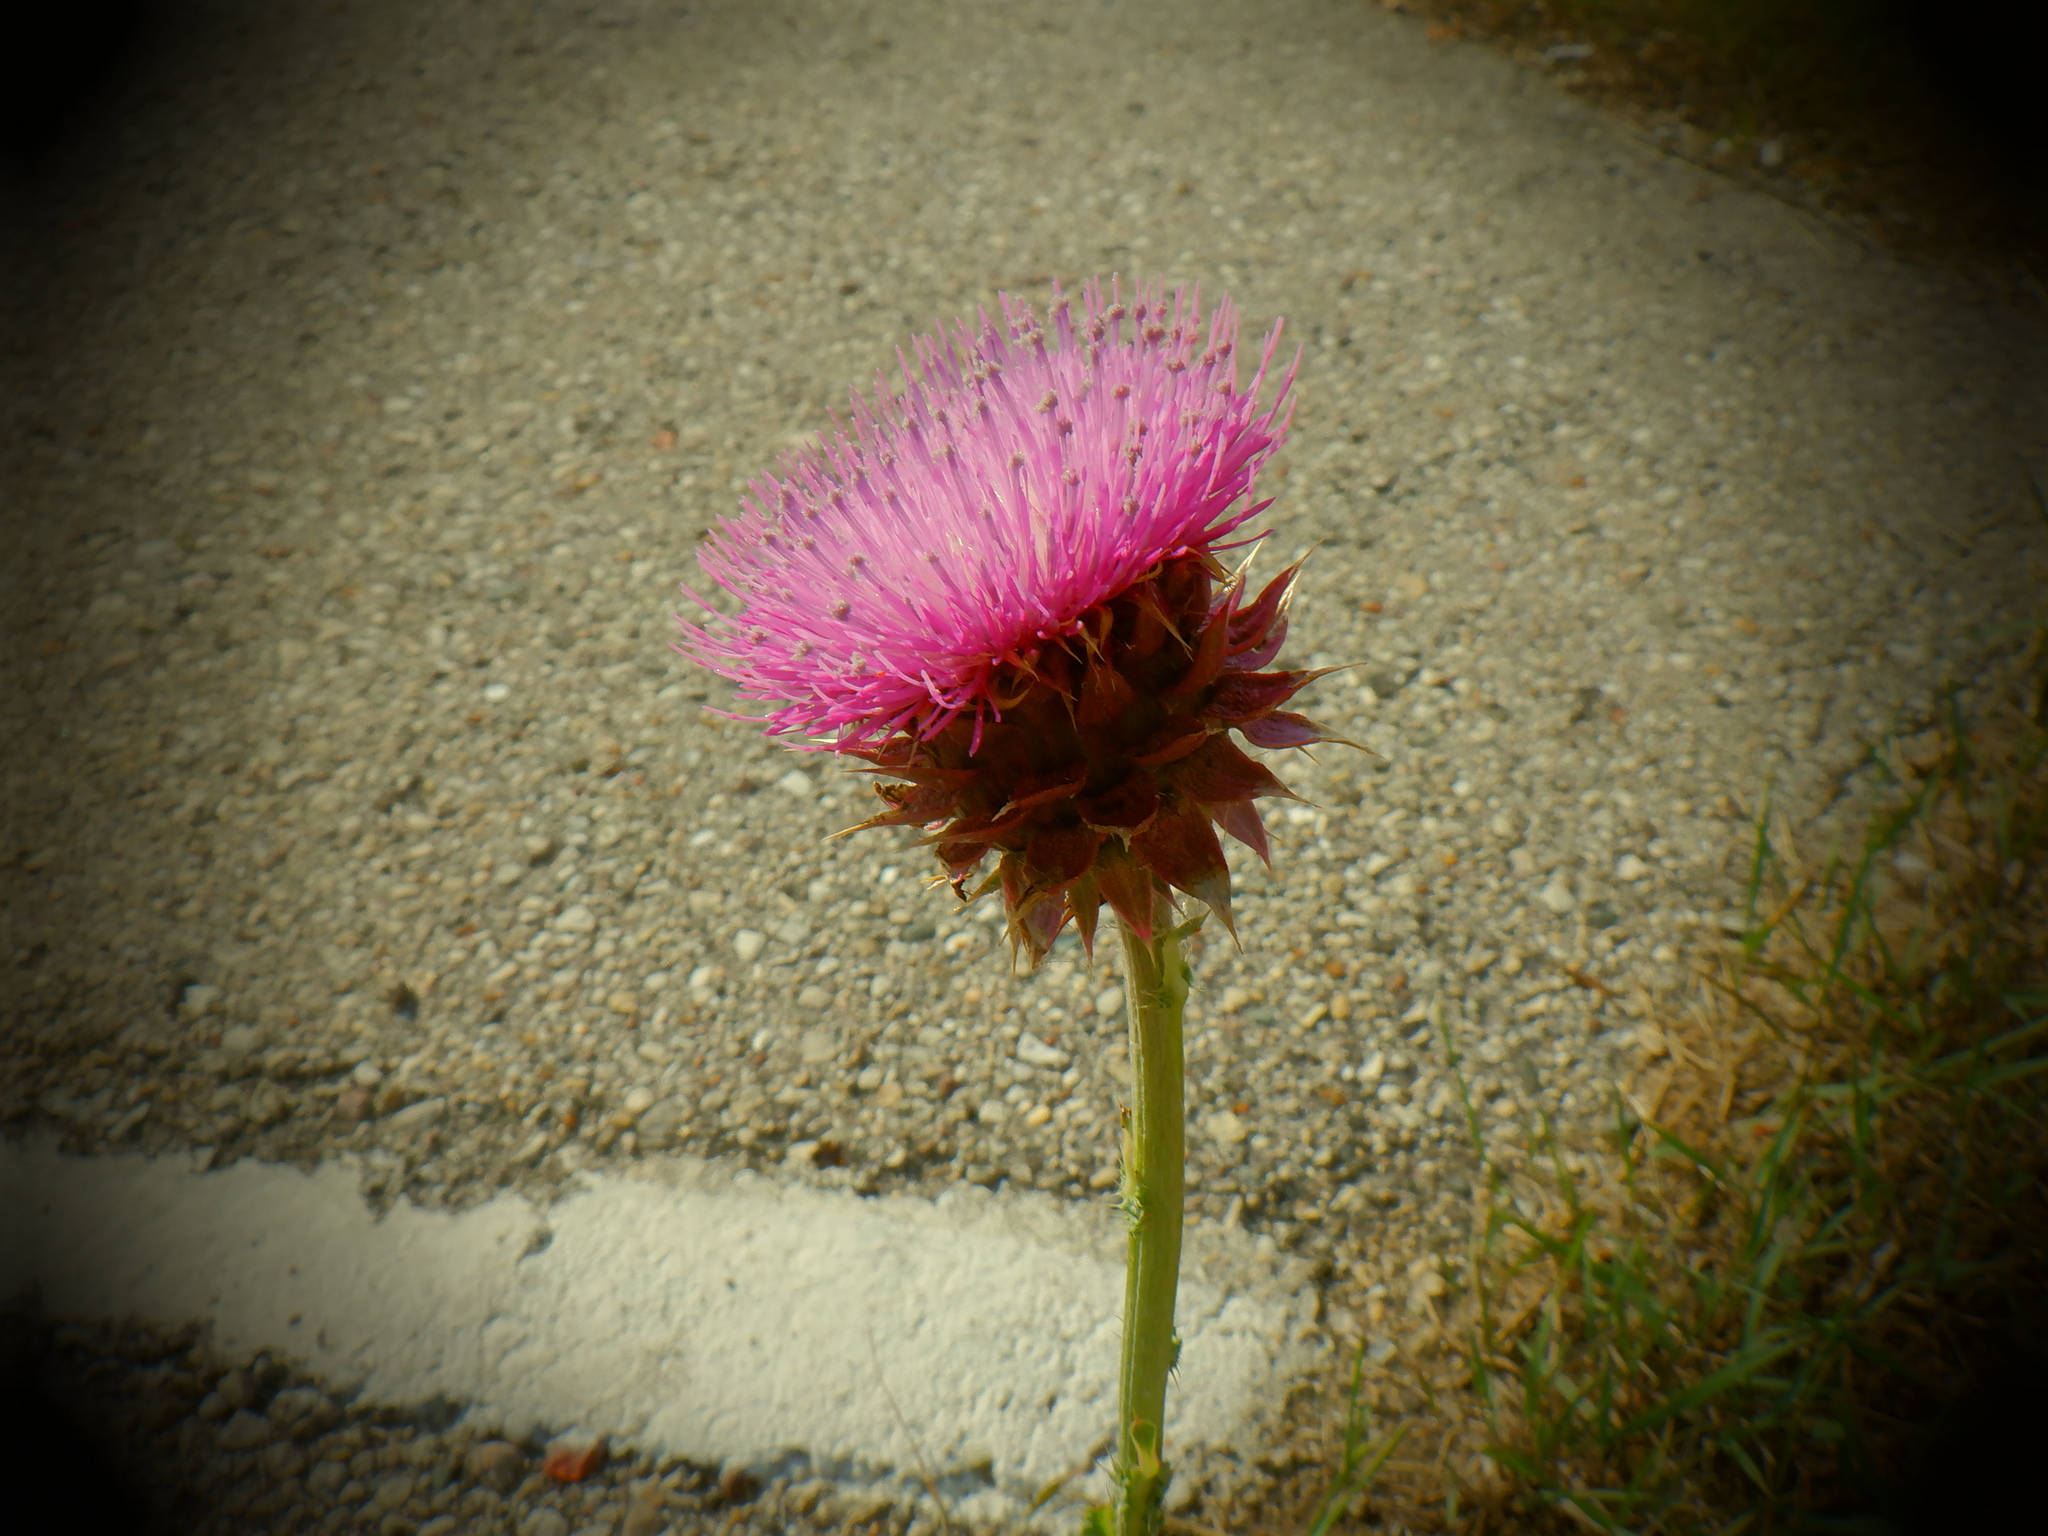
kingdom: Plantae
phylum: Tracheophyta
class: Magnoliopsida
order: Asterales
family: Asteraceae
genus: Carduus
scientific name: Carduus nutans
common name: Musk thistle
